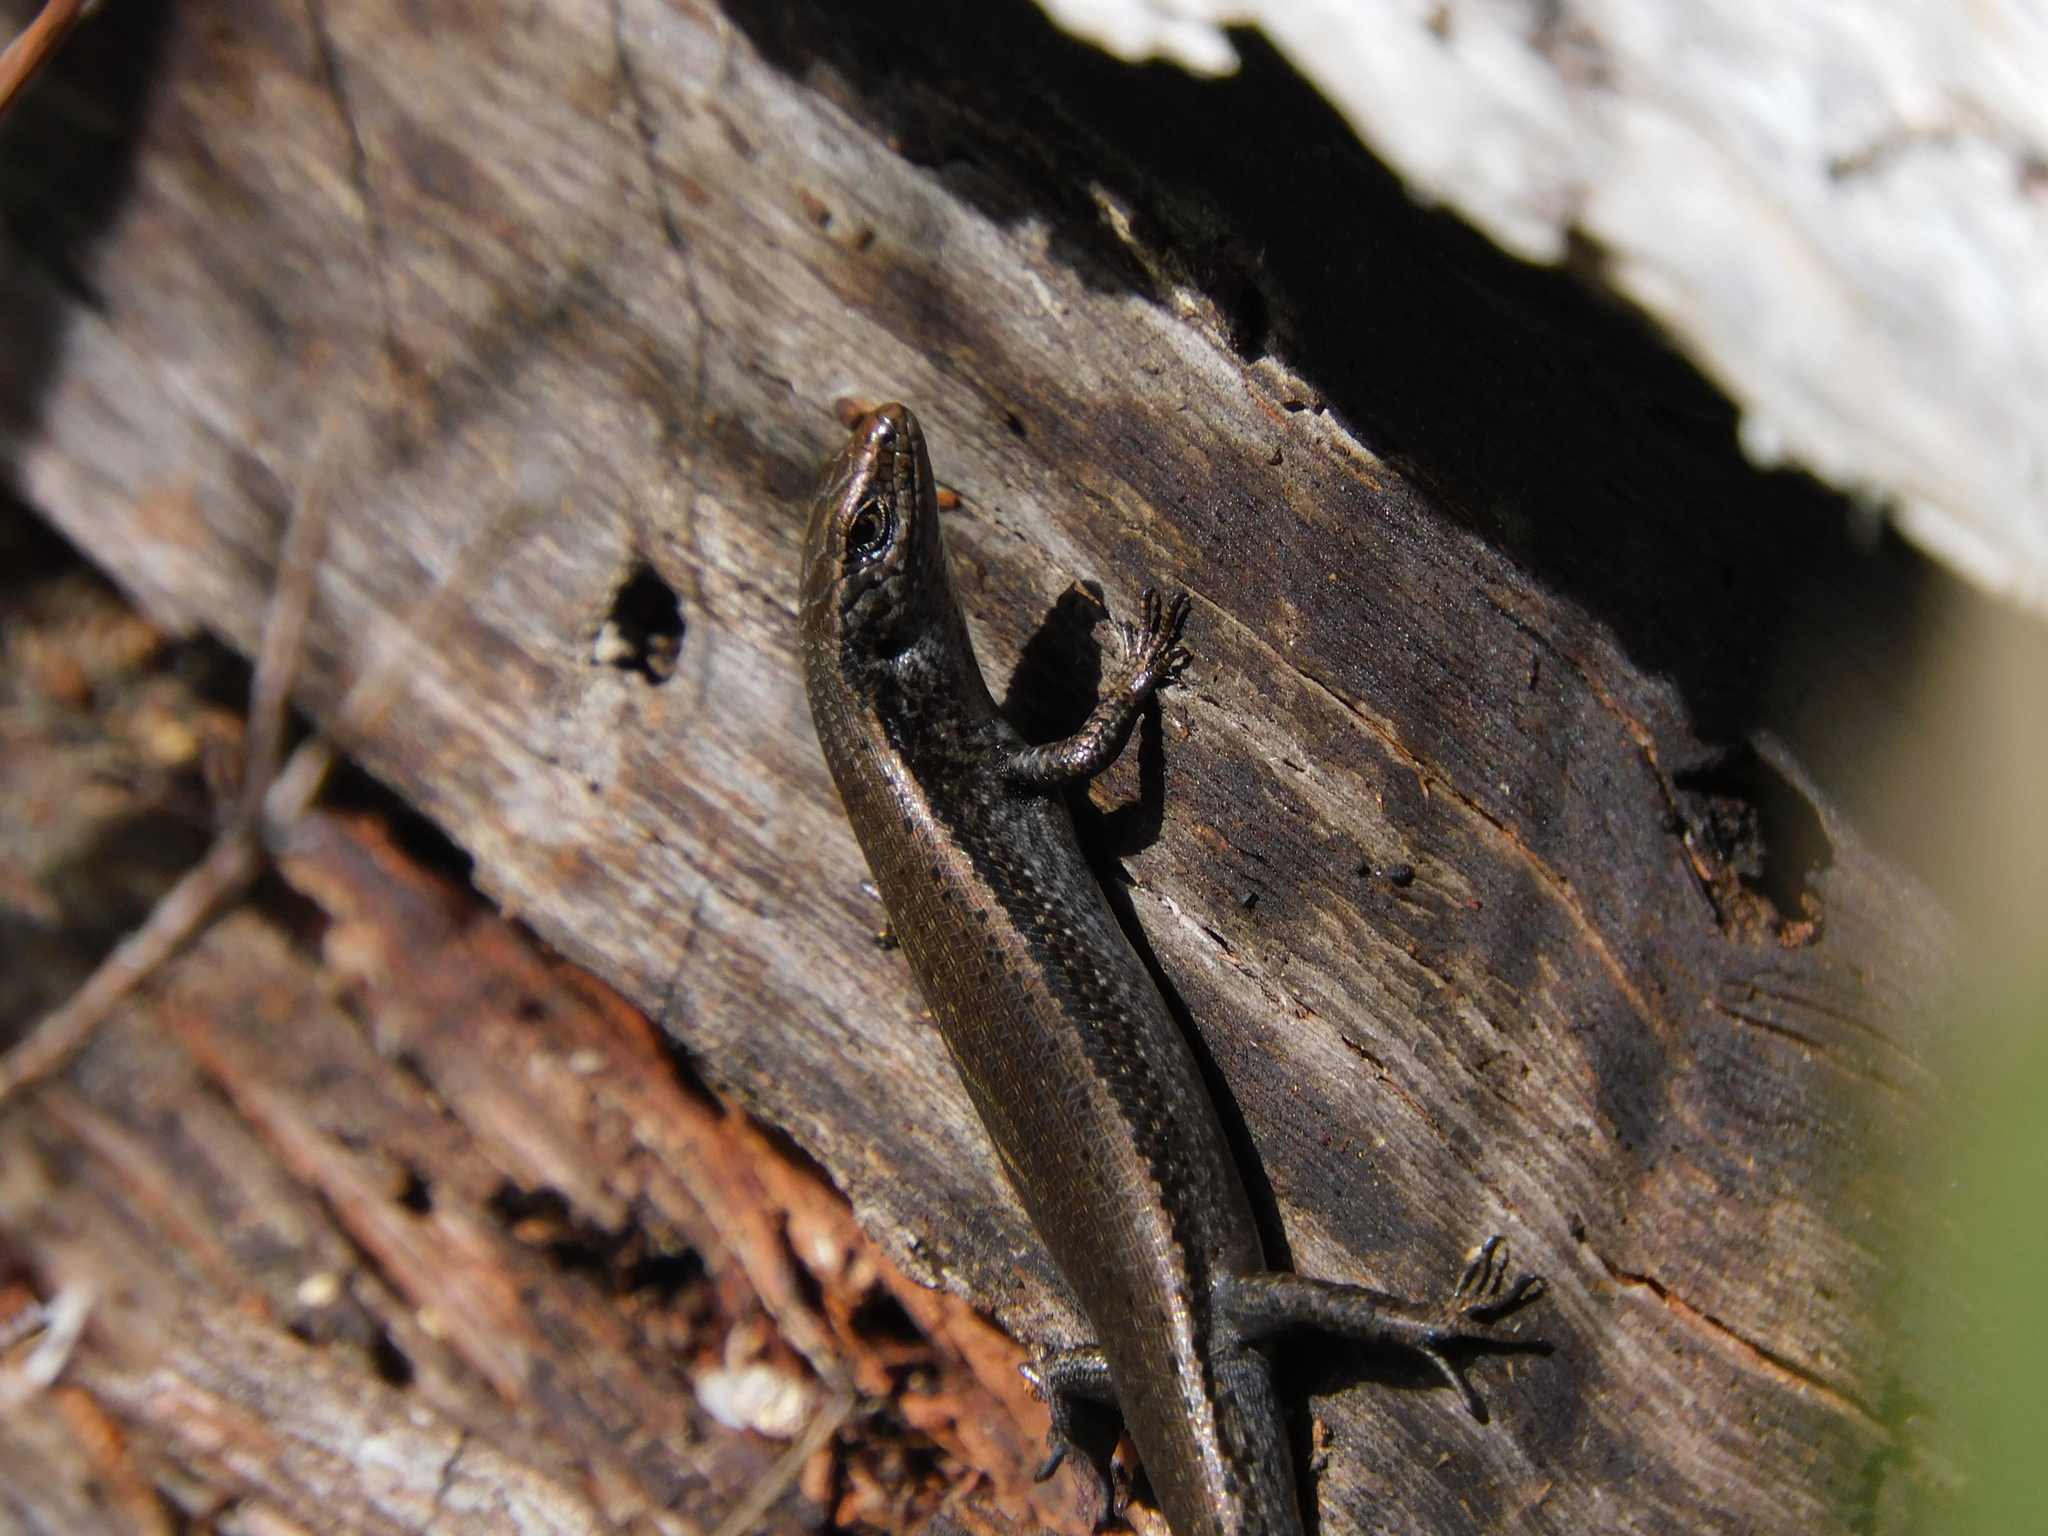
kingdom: Animalia
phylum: Chordata
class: Squamata
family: Scincidae
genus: Carinascincus
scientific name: Carinascincus metallicus
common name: Metallic cool-skink
